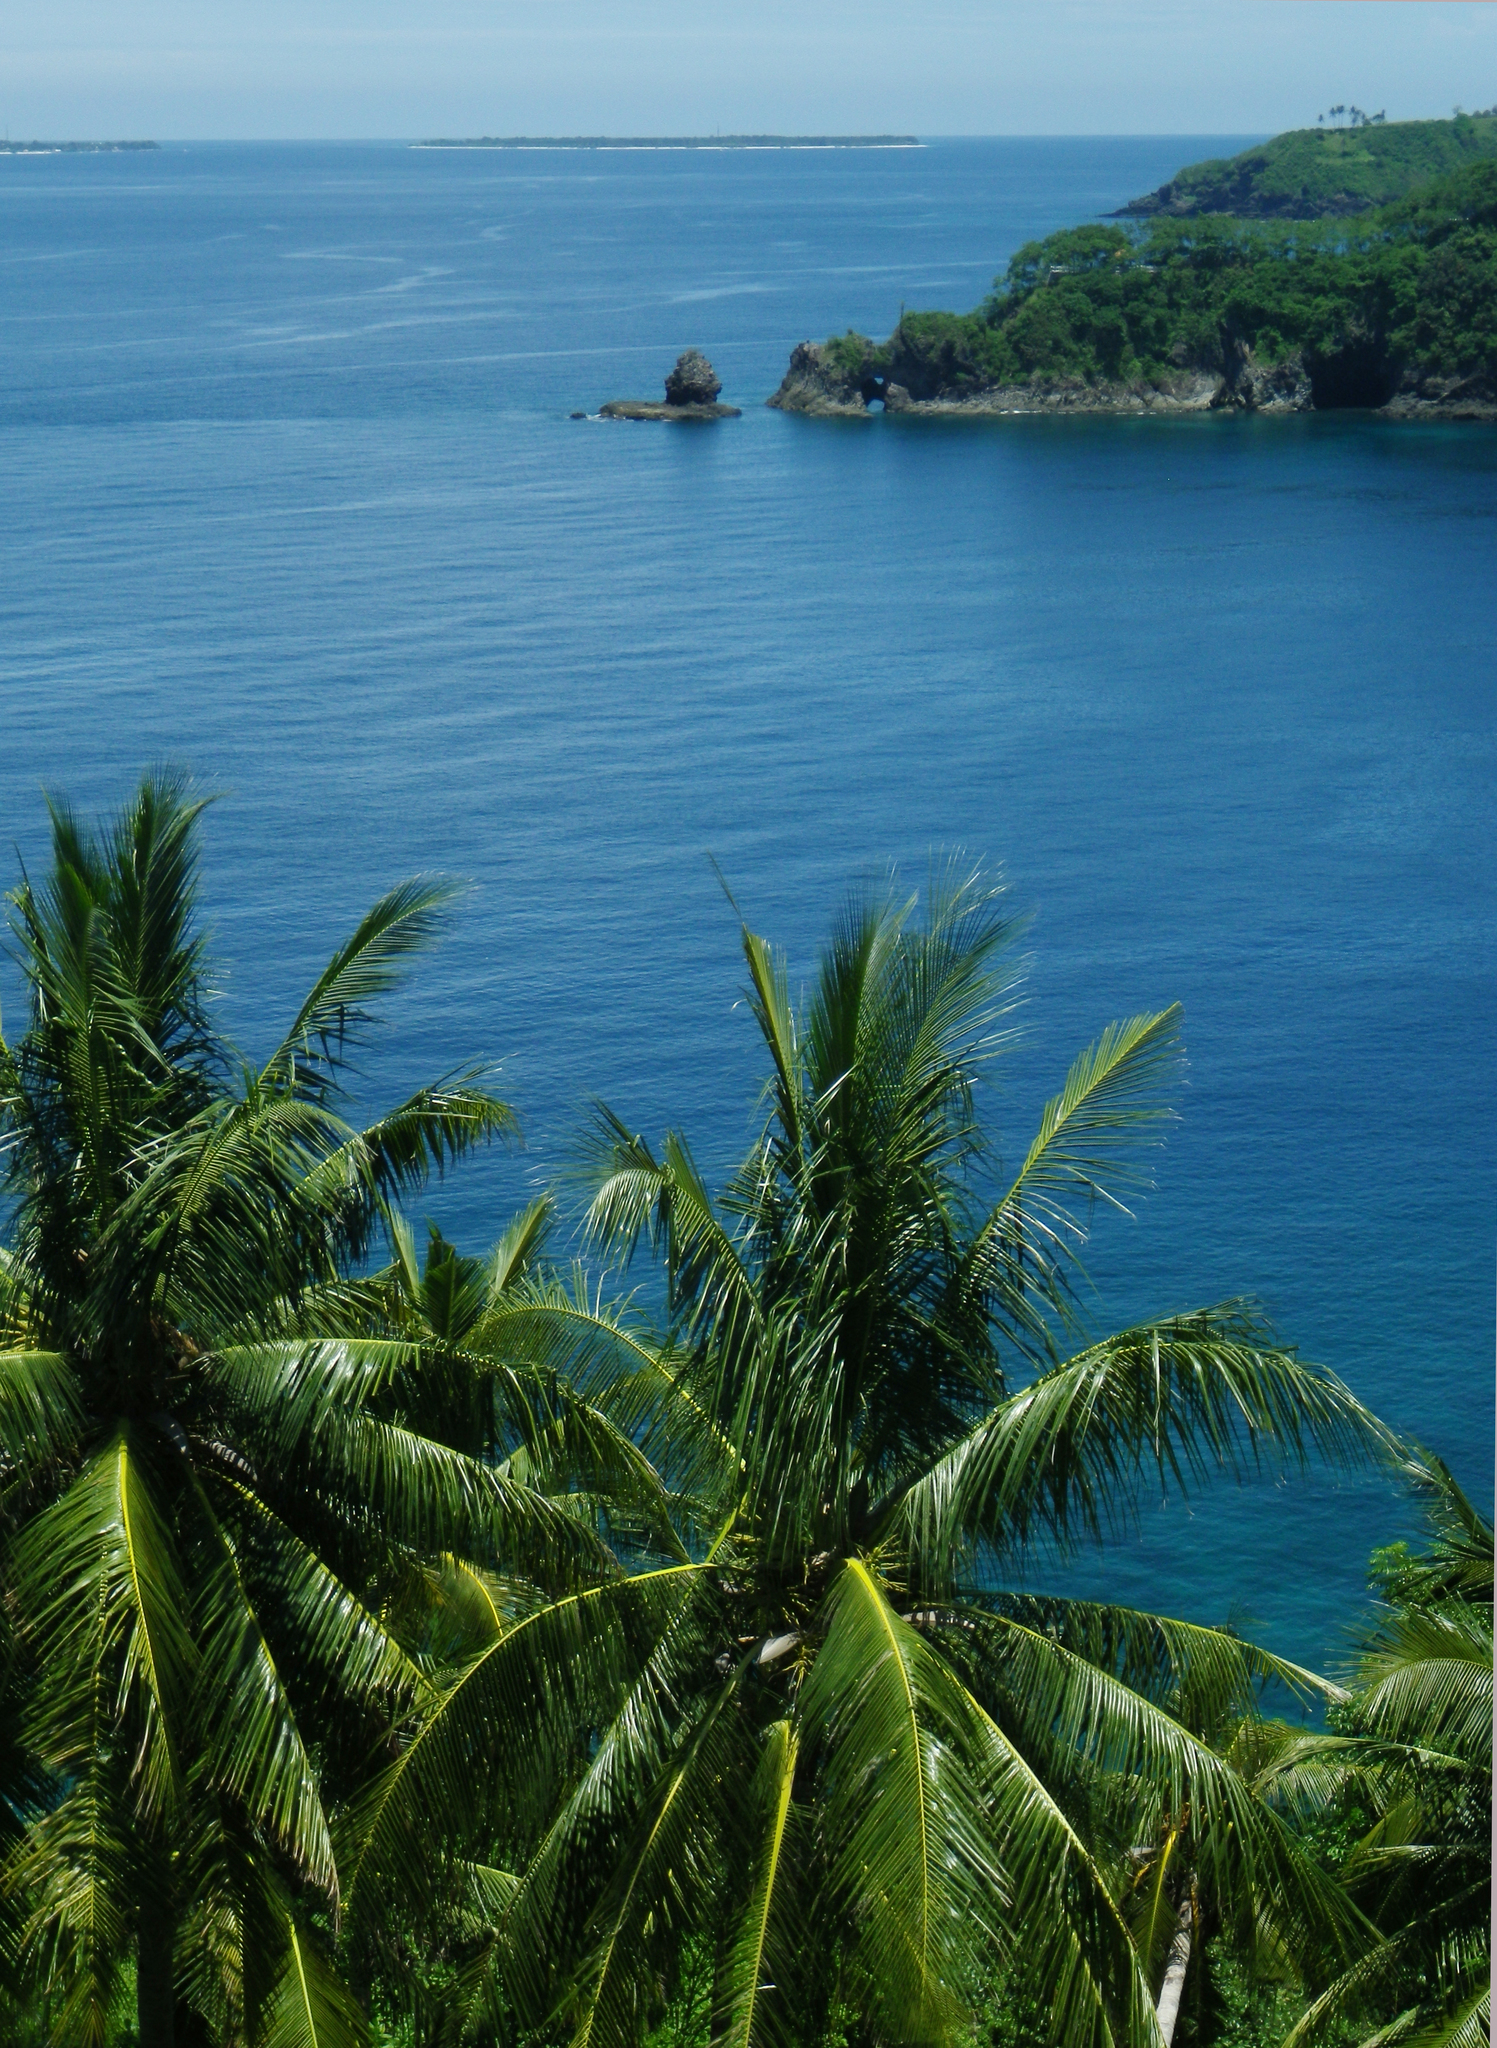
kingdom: Plantae
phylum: Tracheophyta
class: Liliopsida
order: Arecales
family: Arecaceae
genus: Cocos
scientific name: Cocos nucifera
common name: Coconut palm
